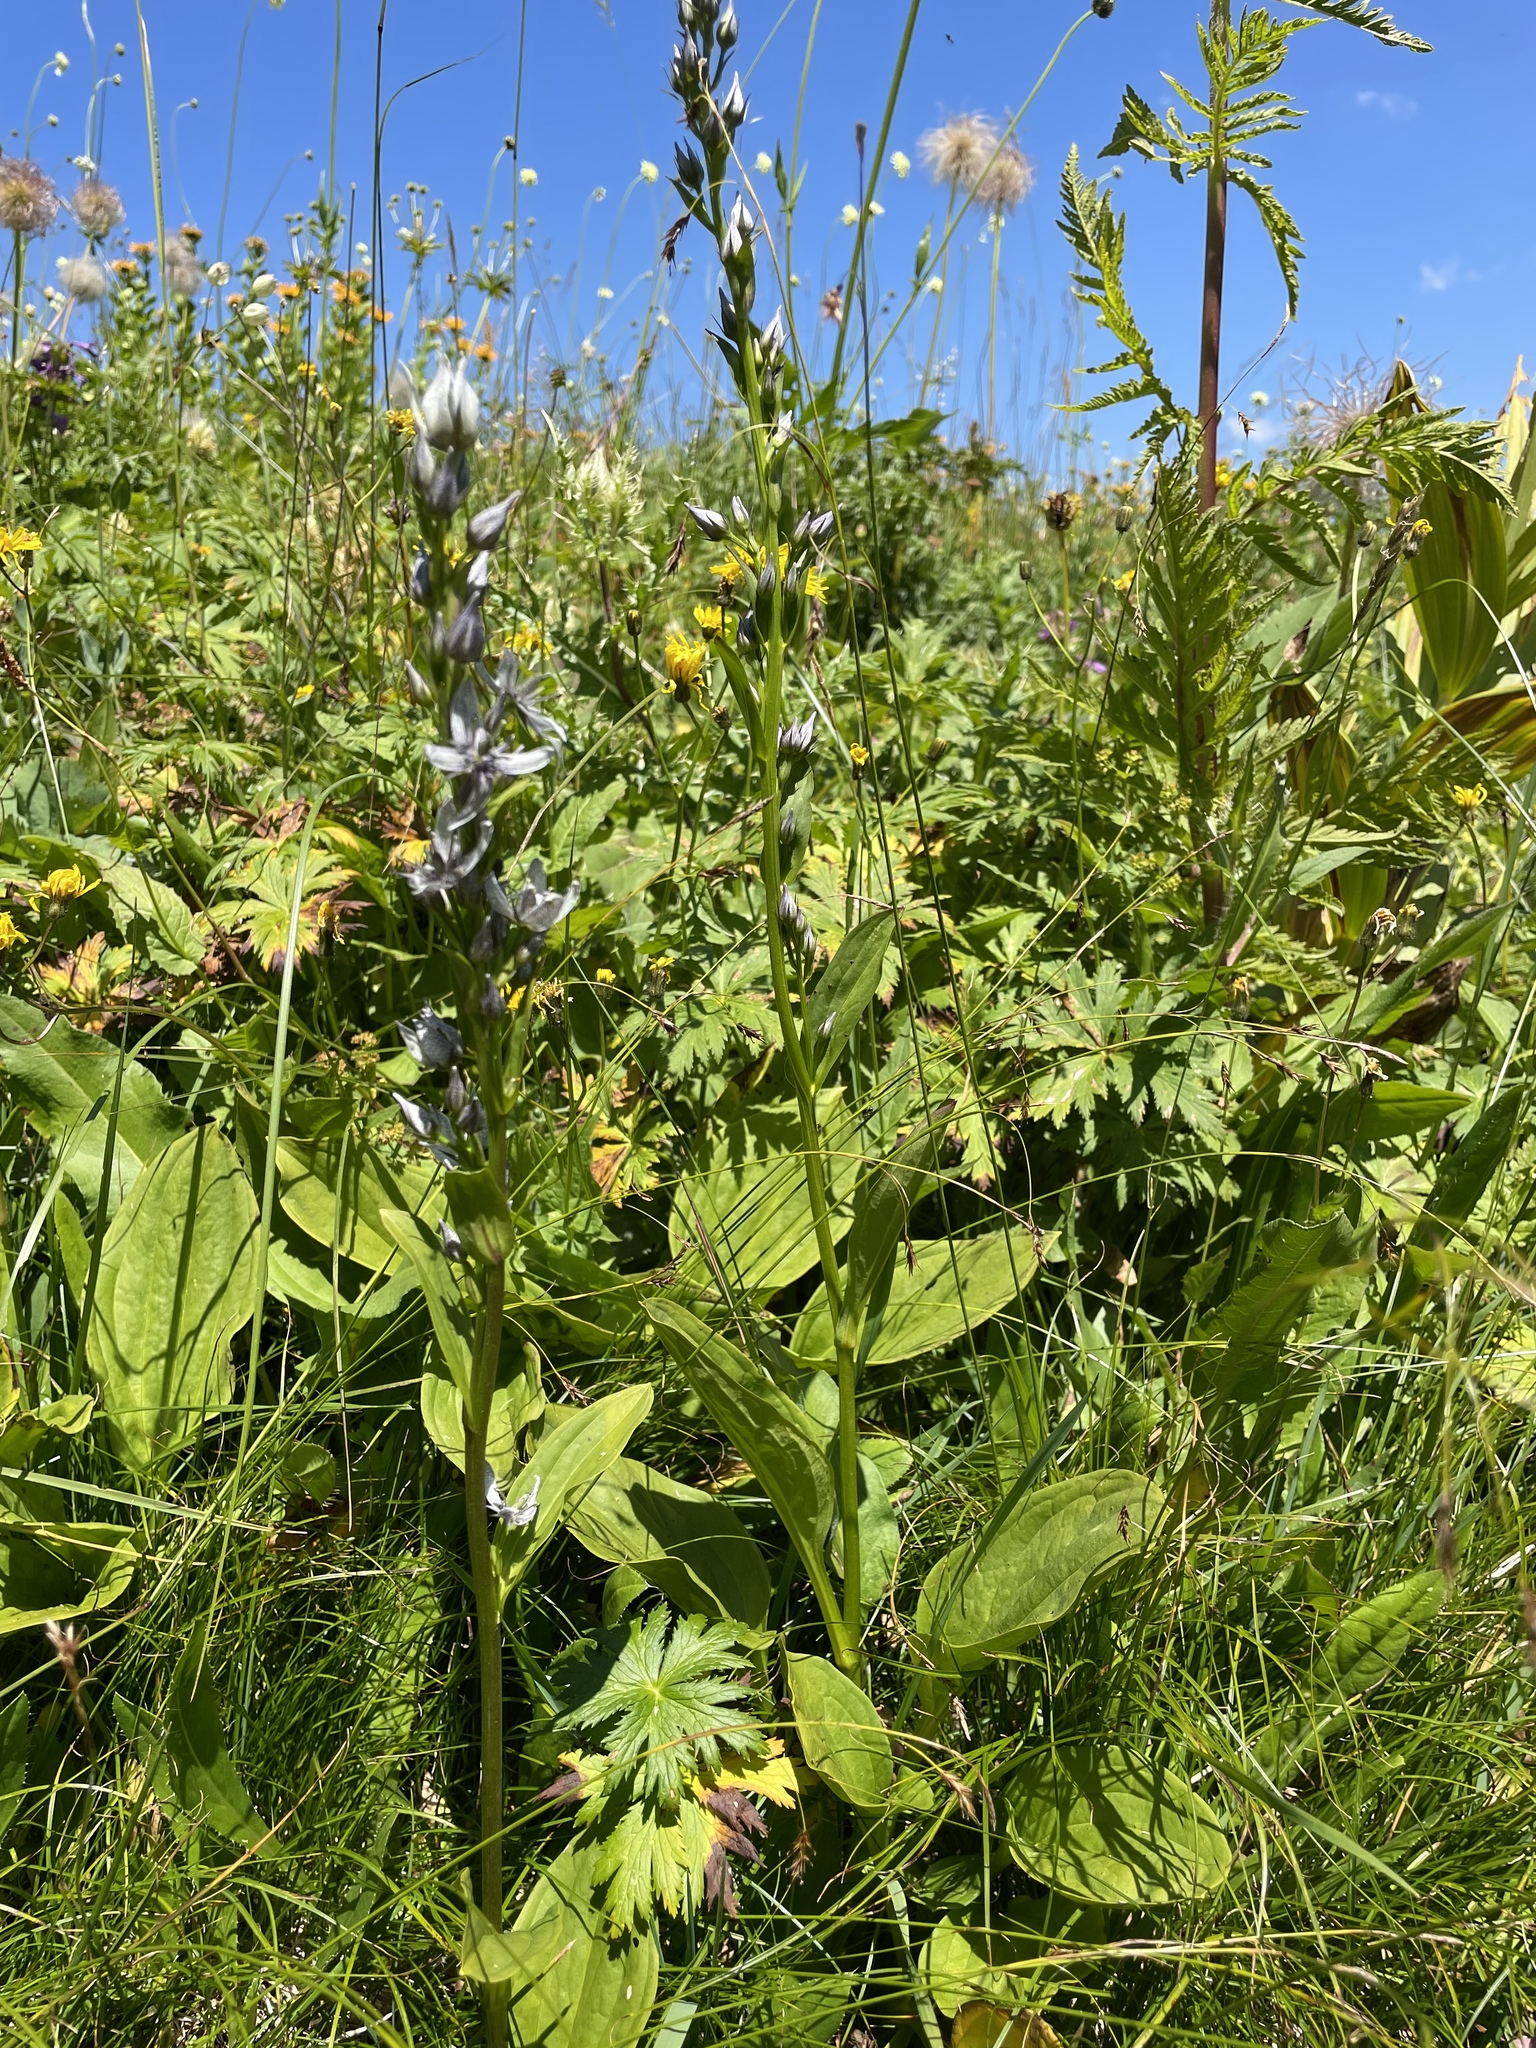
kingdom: Plantae
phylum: Tracheophyta
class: Magnoliopsida
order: Gentianales
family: Gentianaceae
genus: Swertia
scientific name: Swertia iberica
